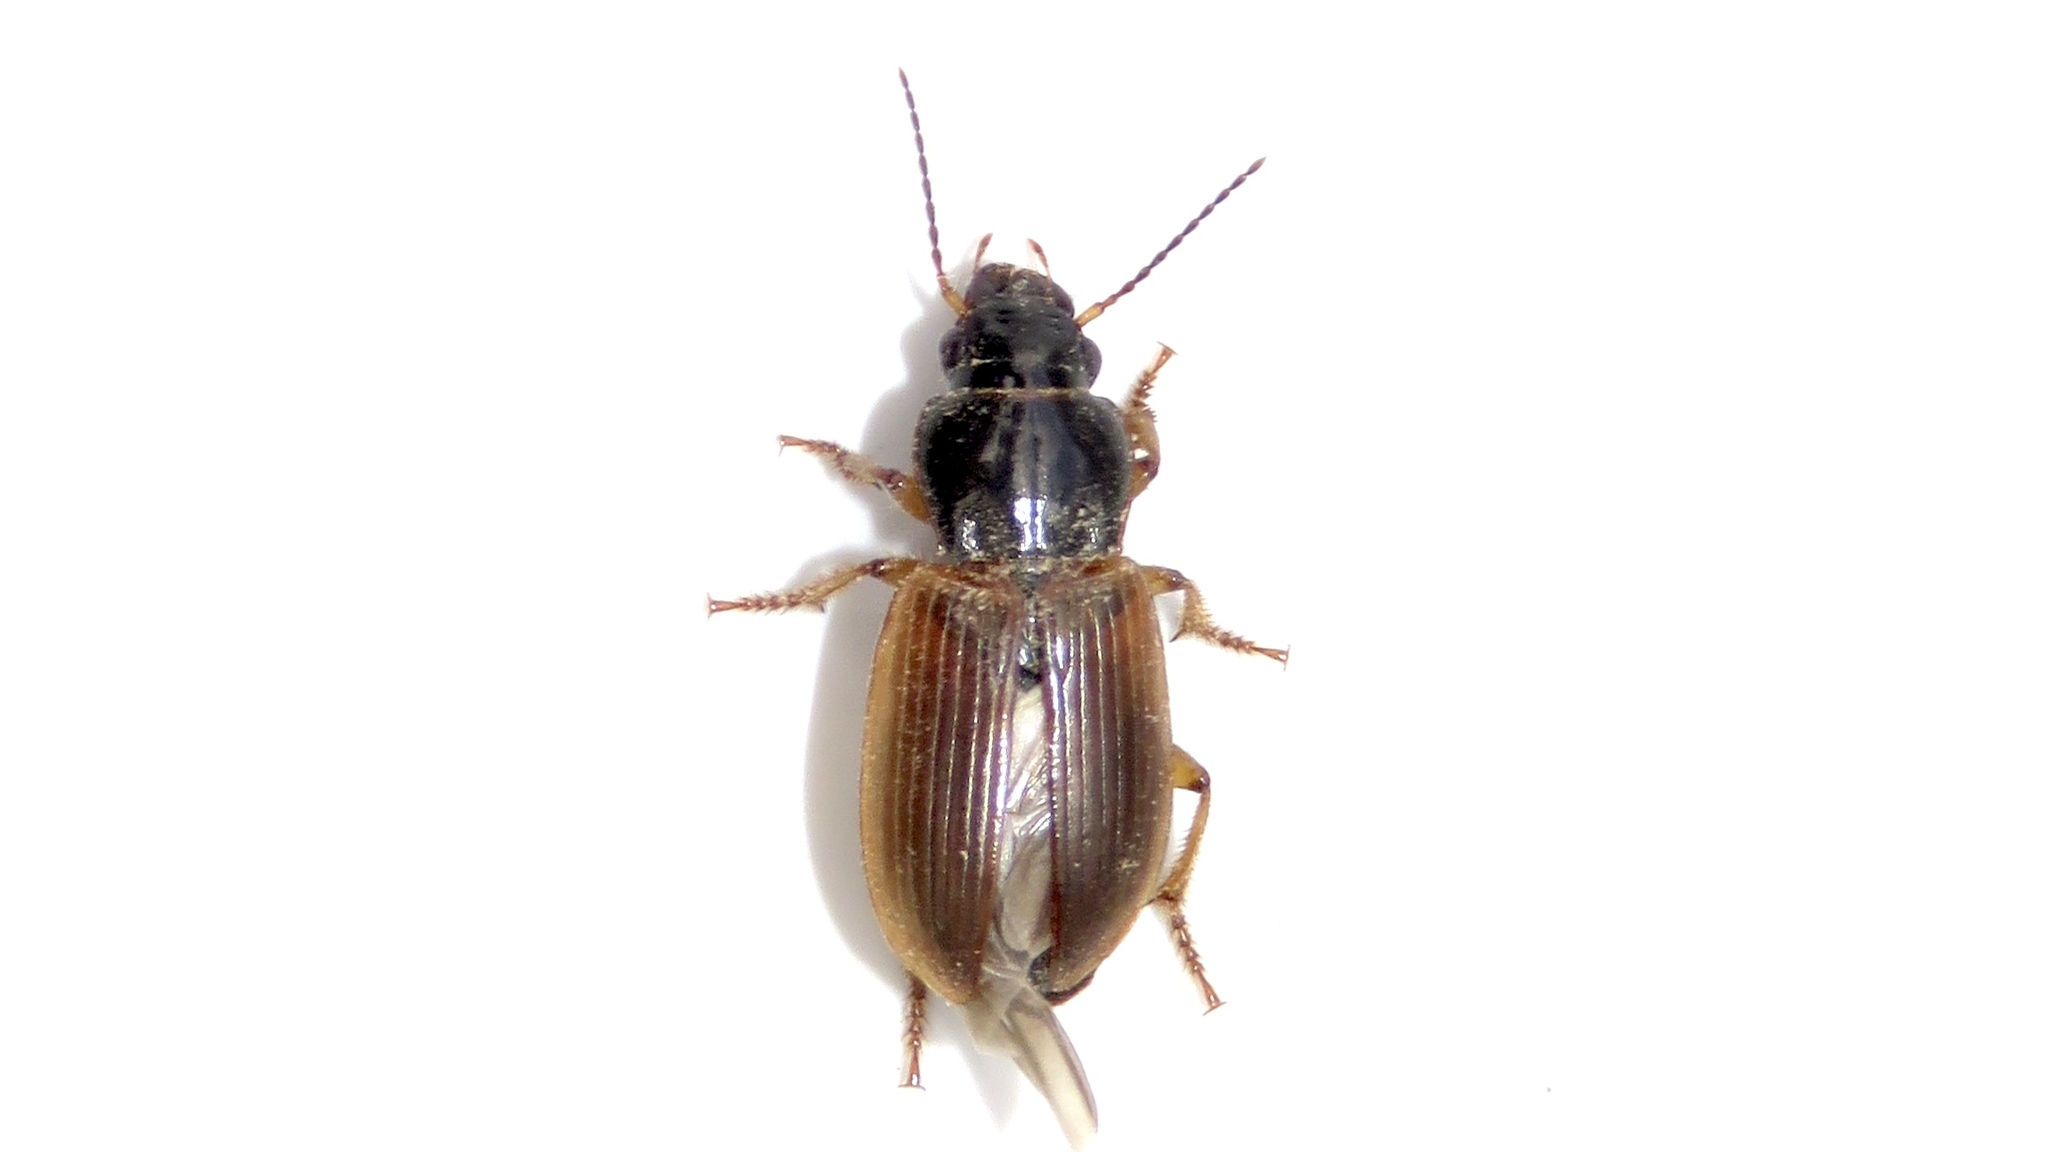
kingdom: Animalia
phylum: Arthropoda
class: Insecta
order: Coleoptera
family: Carabidae
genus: Anisodactylus
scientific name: Anisodactylus sanctaecrucis
